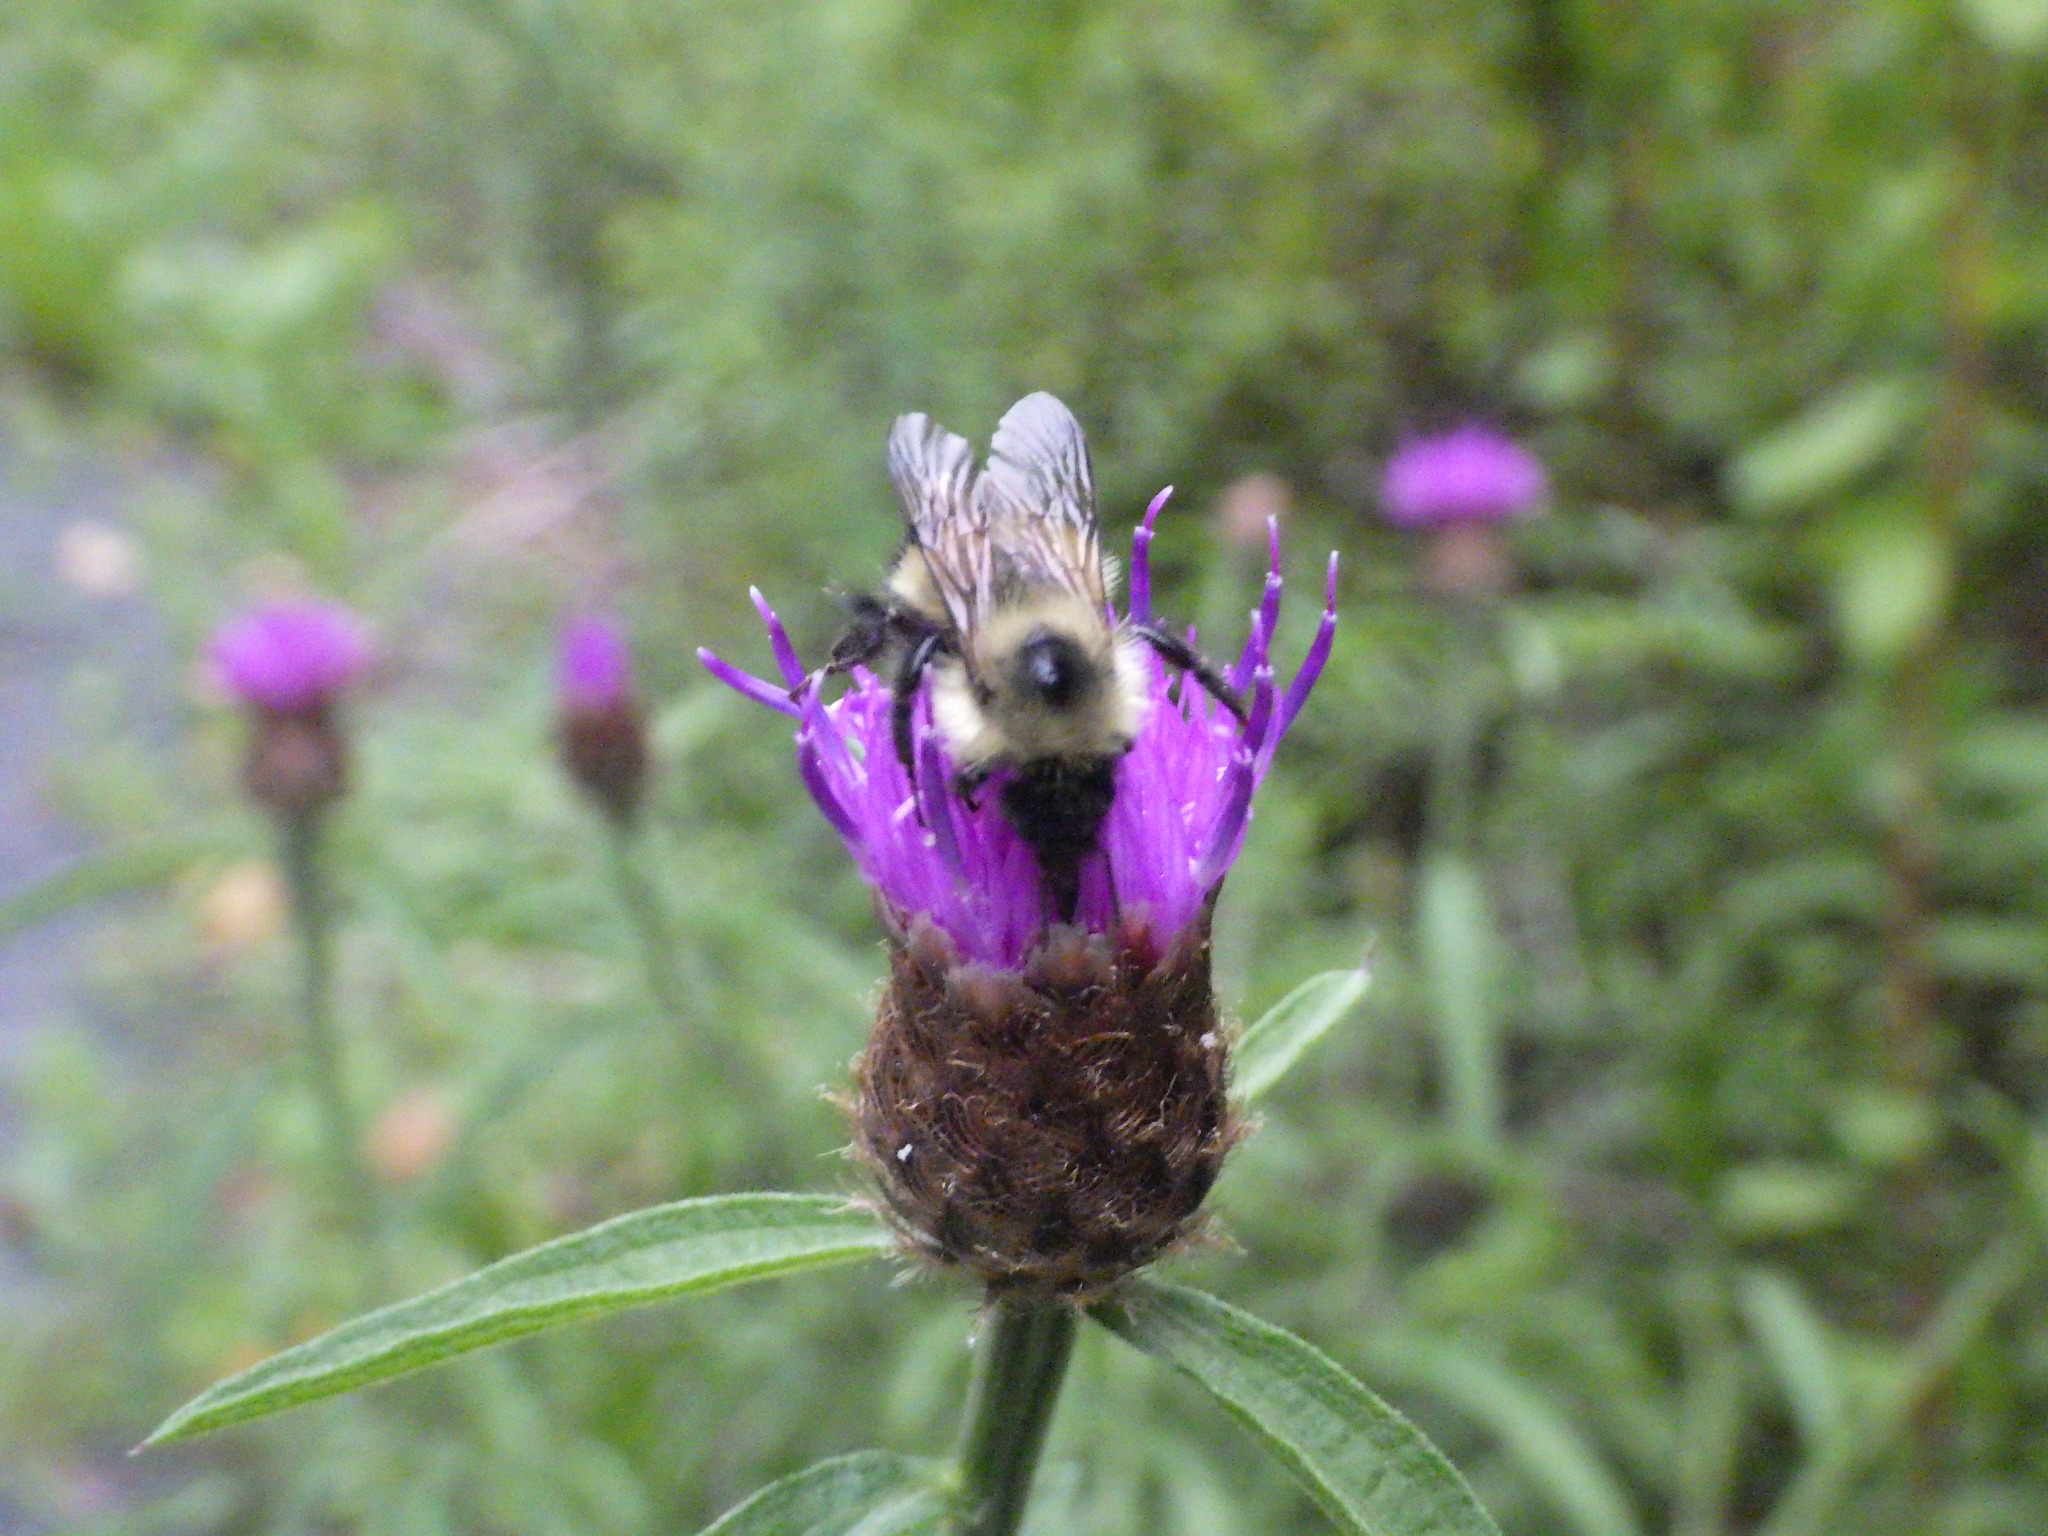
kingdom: Animalia
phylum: Arthropoda
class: Insecta
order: Hymenoptera
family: Apidae
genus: Pyrobombus
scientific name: Pyrobombus
